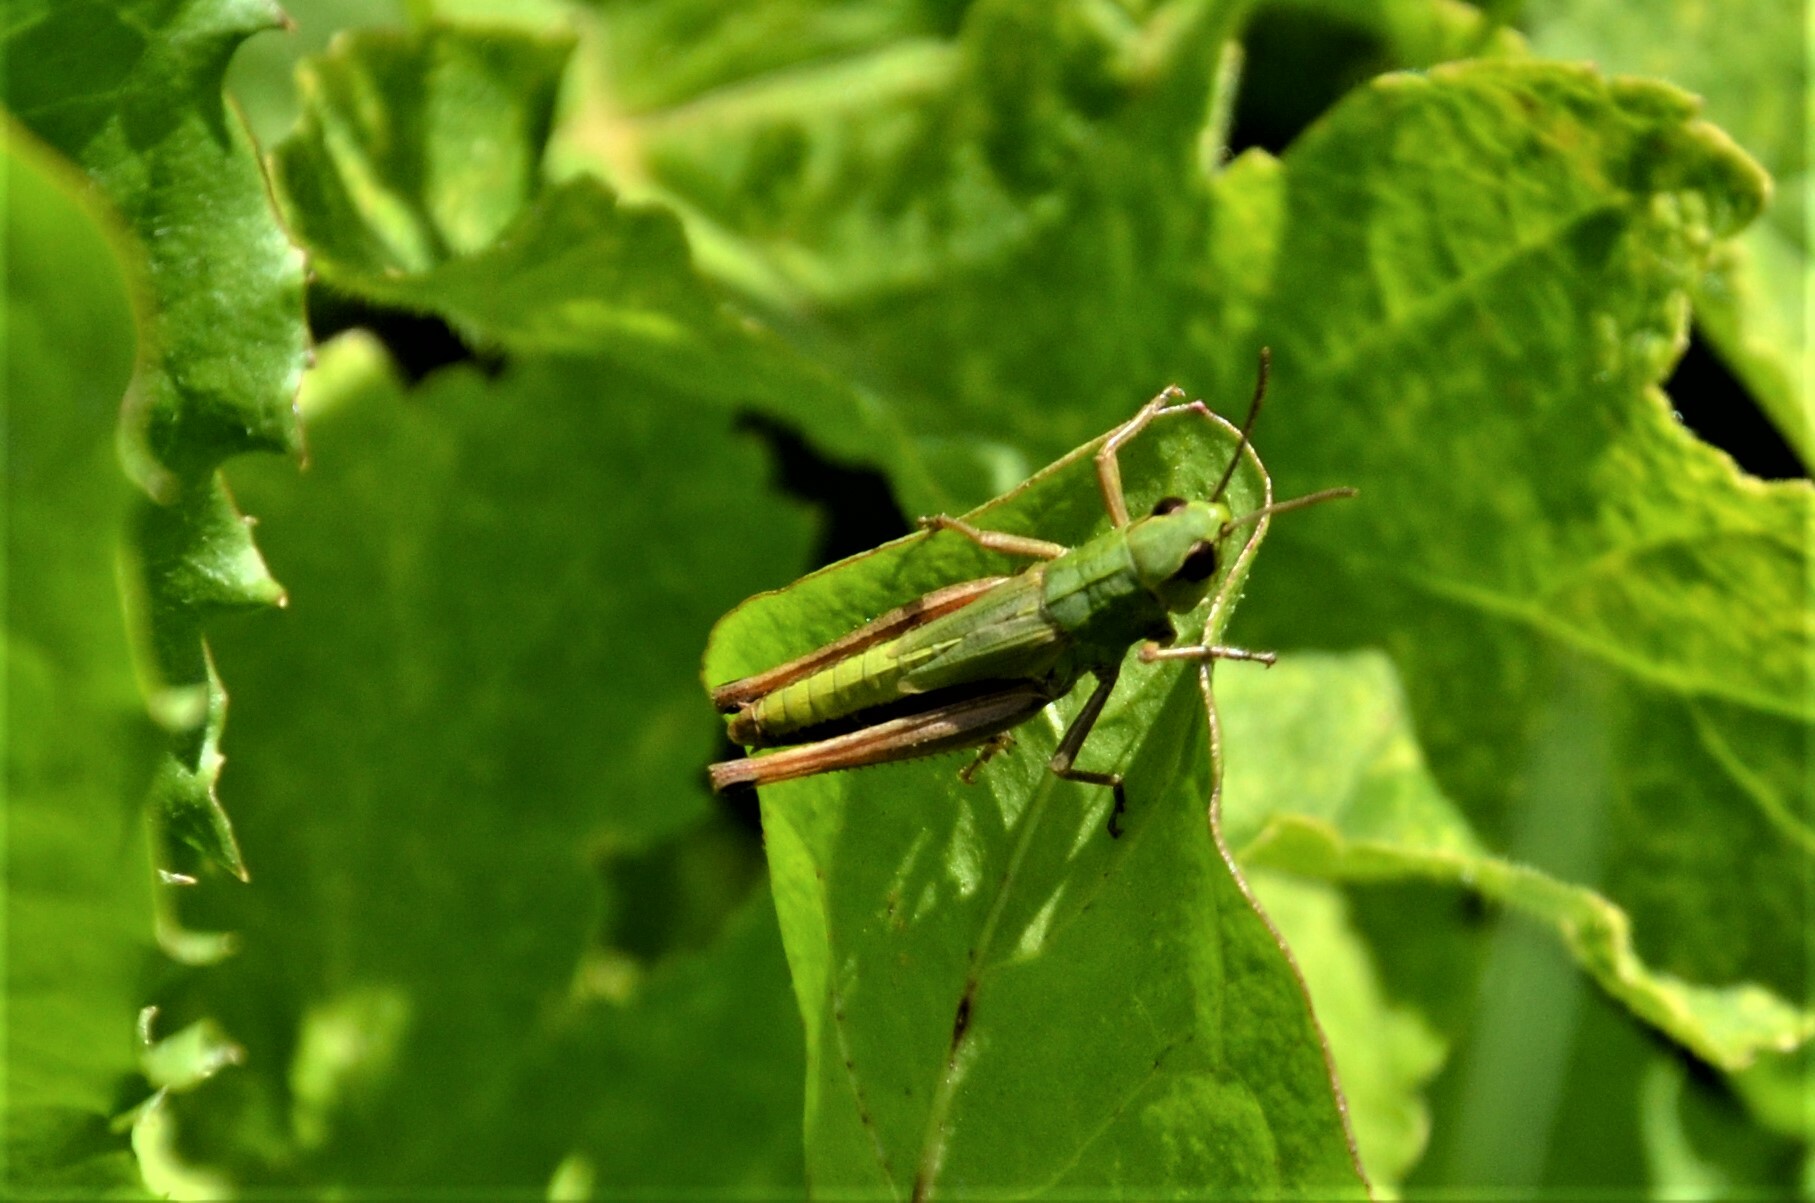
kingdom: Animalia
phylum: Arthropoda
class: Insecta
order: Orthoptera
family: Acrididae
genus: Pseudochorthippus
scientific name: Pseudochorthippus parallelus
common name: Meadow grasshopper
